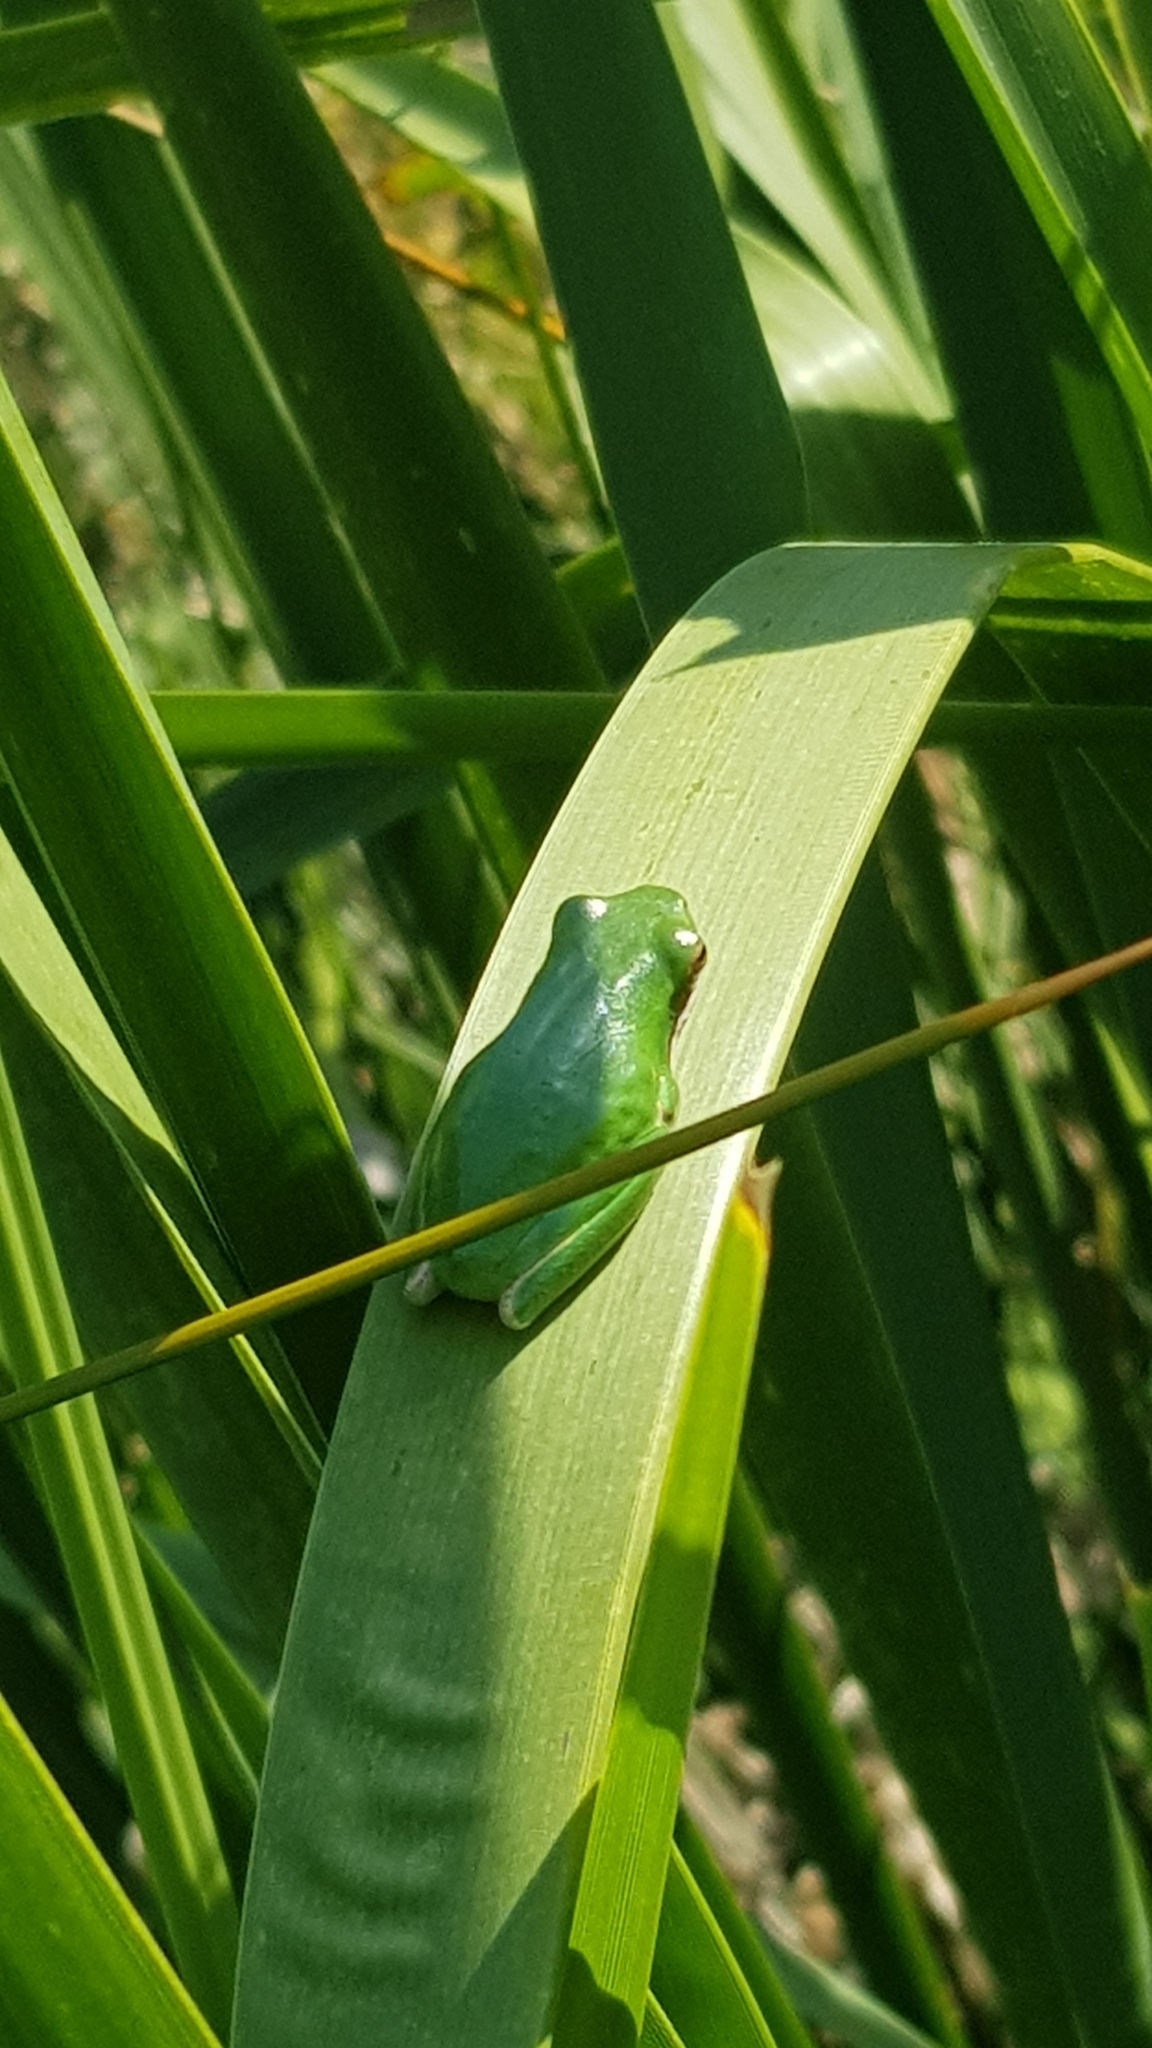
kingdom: Animalia
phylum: Chordata
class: Amphibia
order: Anura
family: Pelodryadidae
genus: Litoria
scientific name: Litoria fallax
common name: Eastern dwarf treefrog
